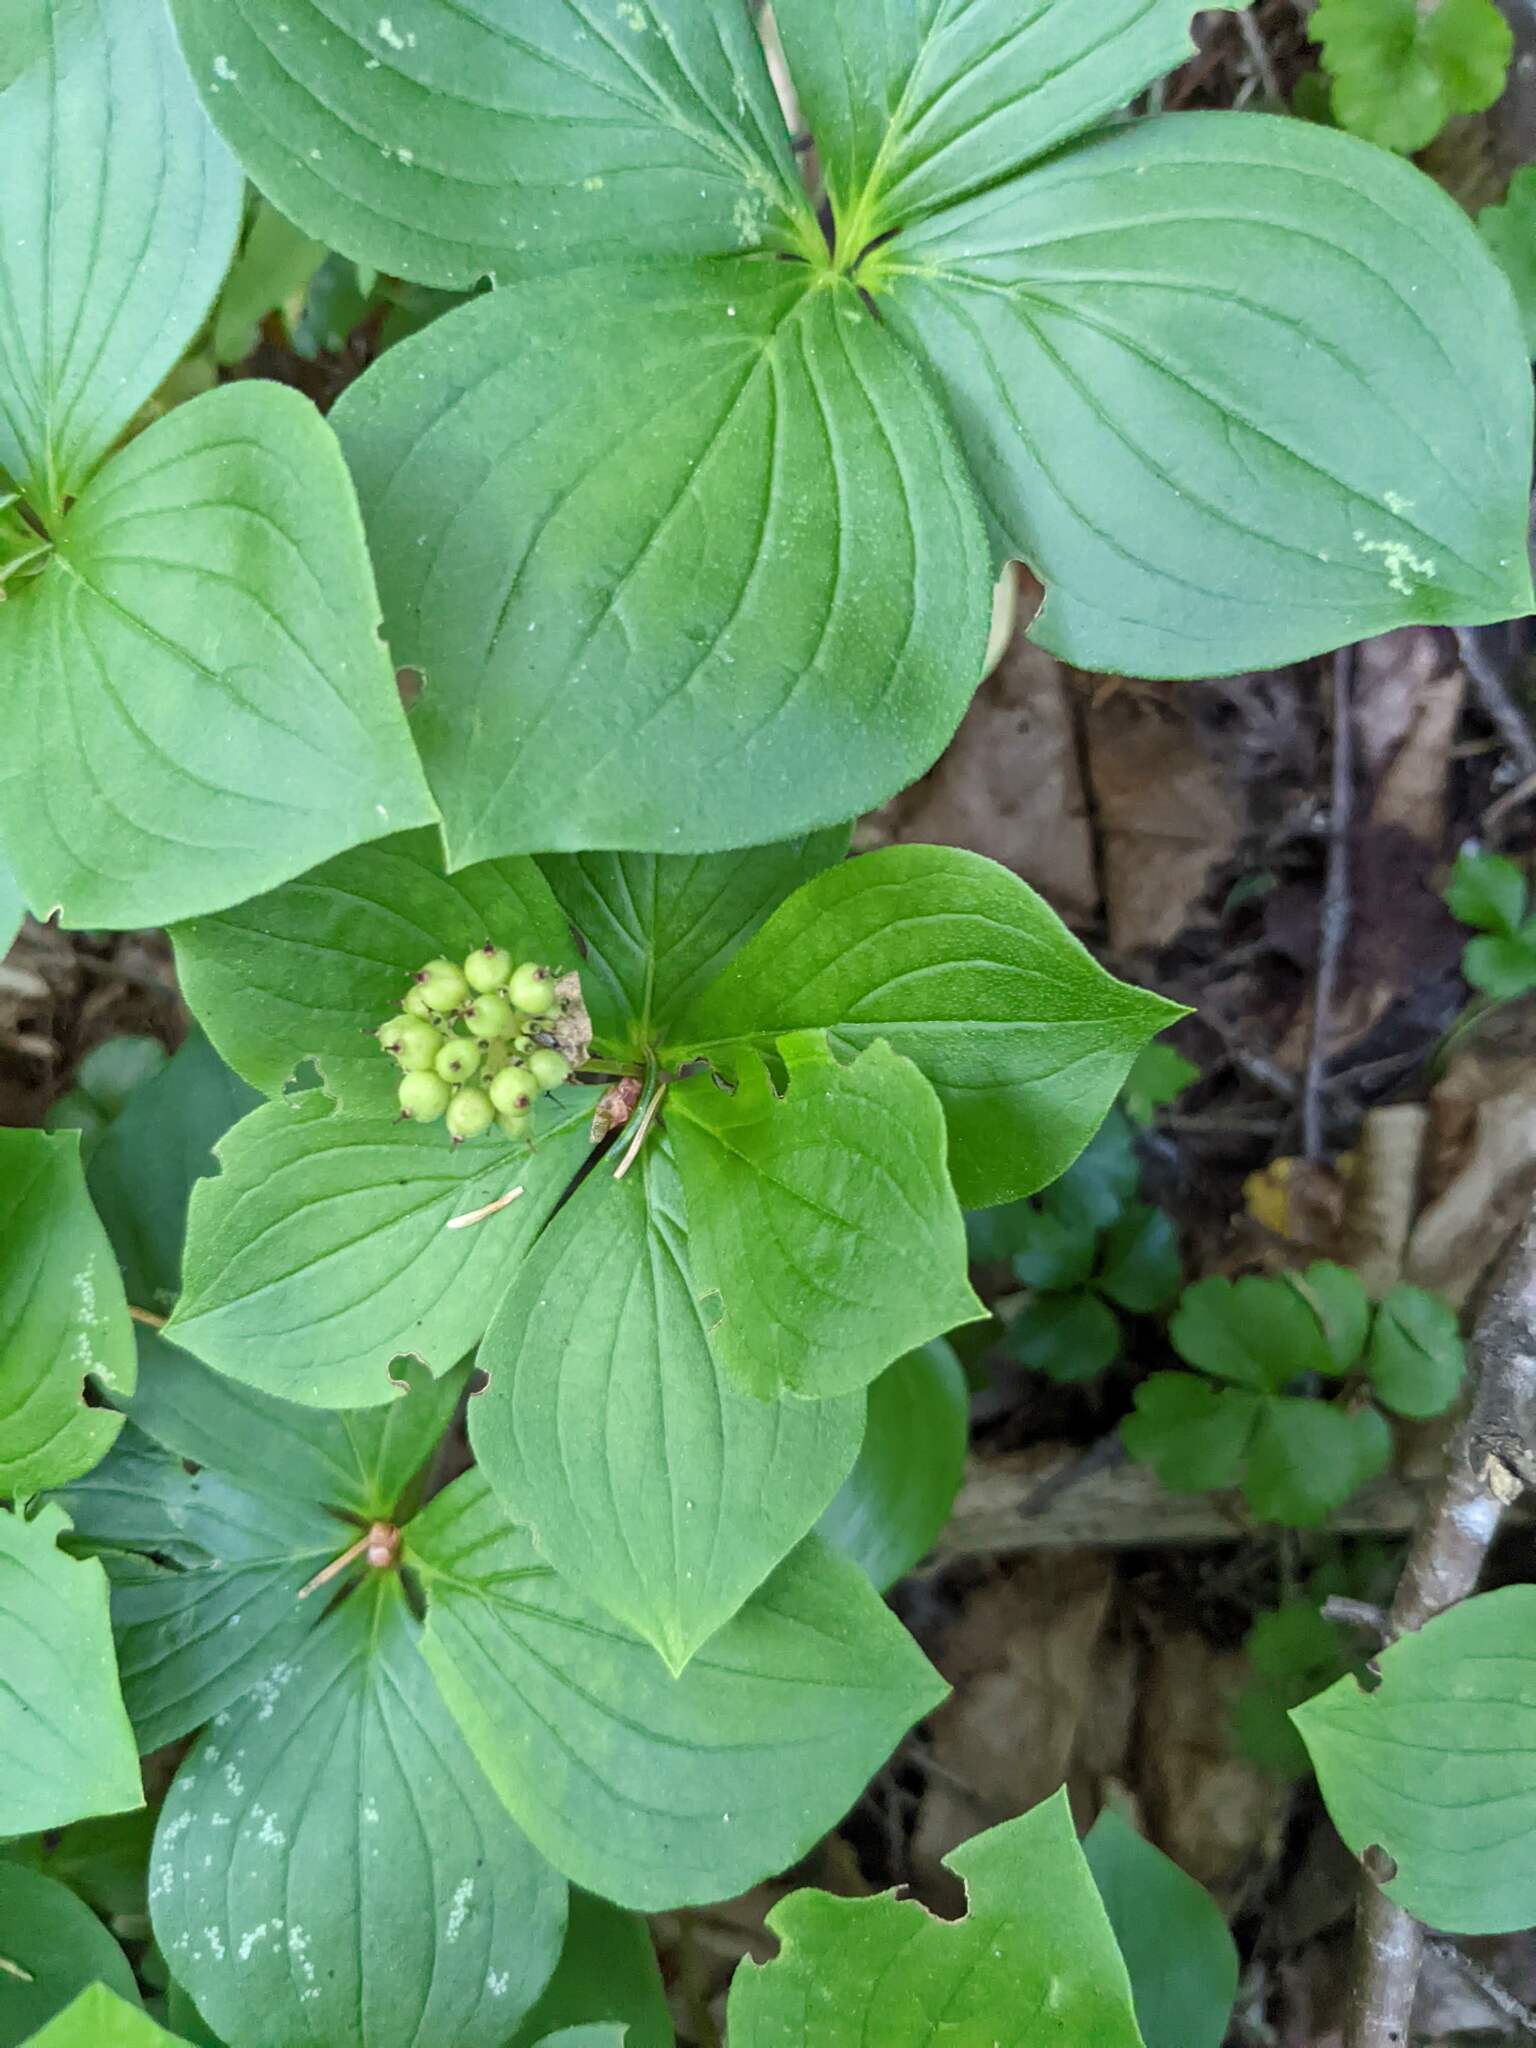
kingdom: Plantae
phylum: Tracheophyta
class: Magnoliopsida
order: Cornales
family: Cornaceae
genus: Cornus
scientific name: Cornus canadensis
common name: Creeping dogwood
